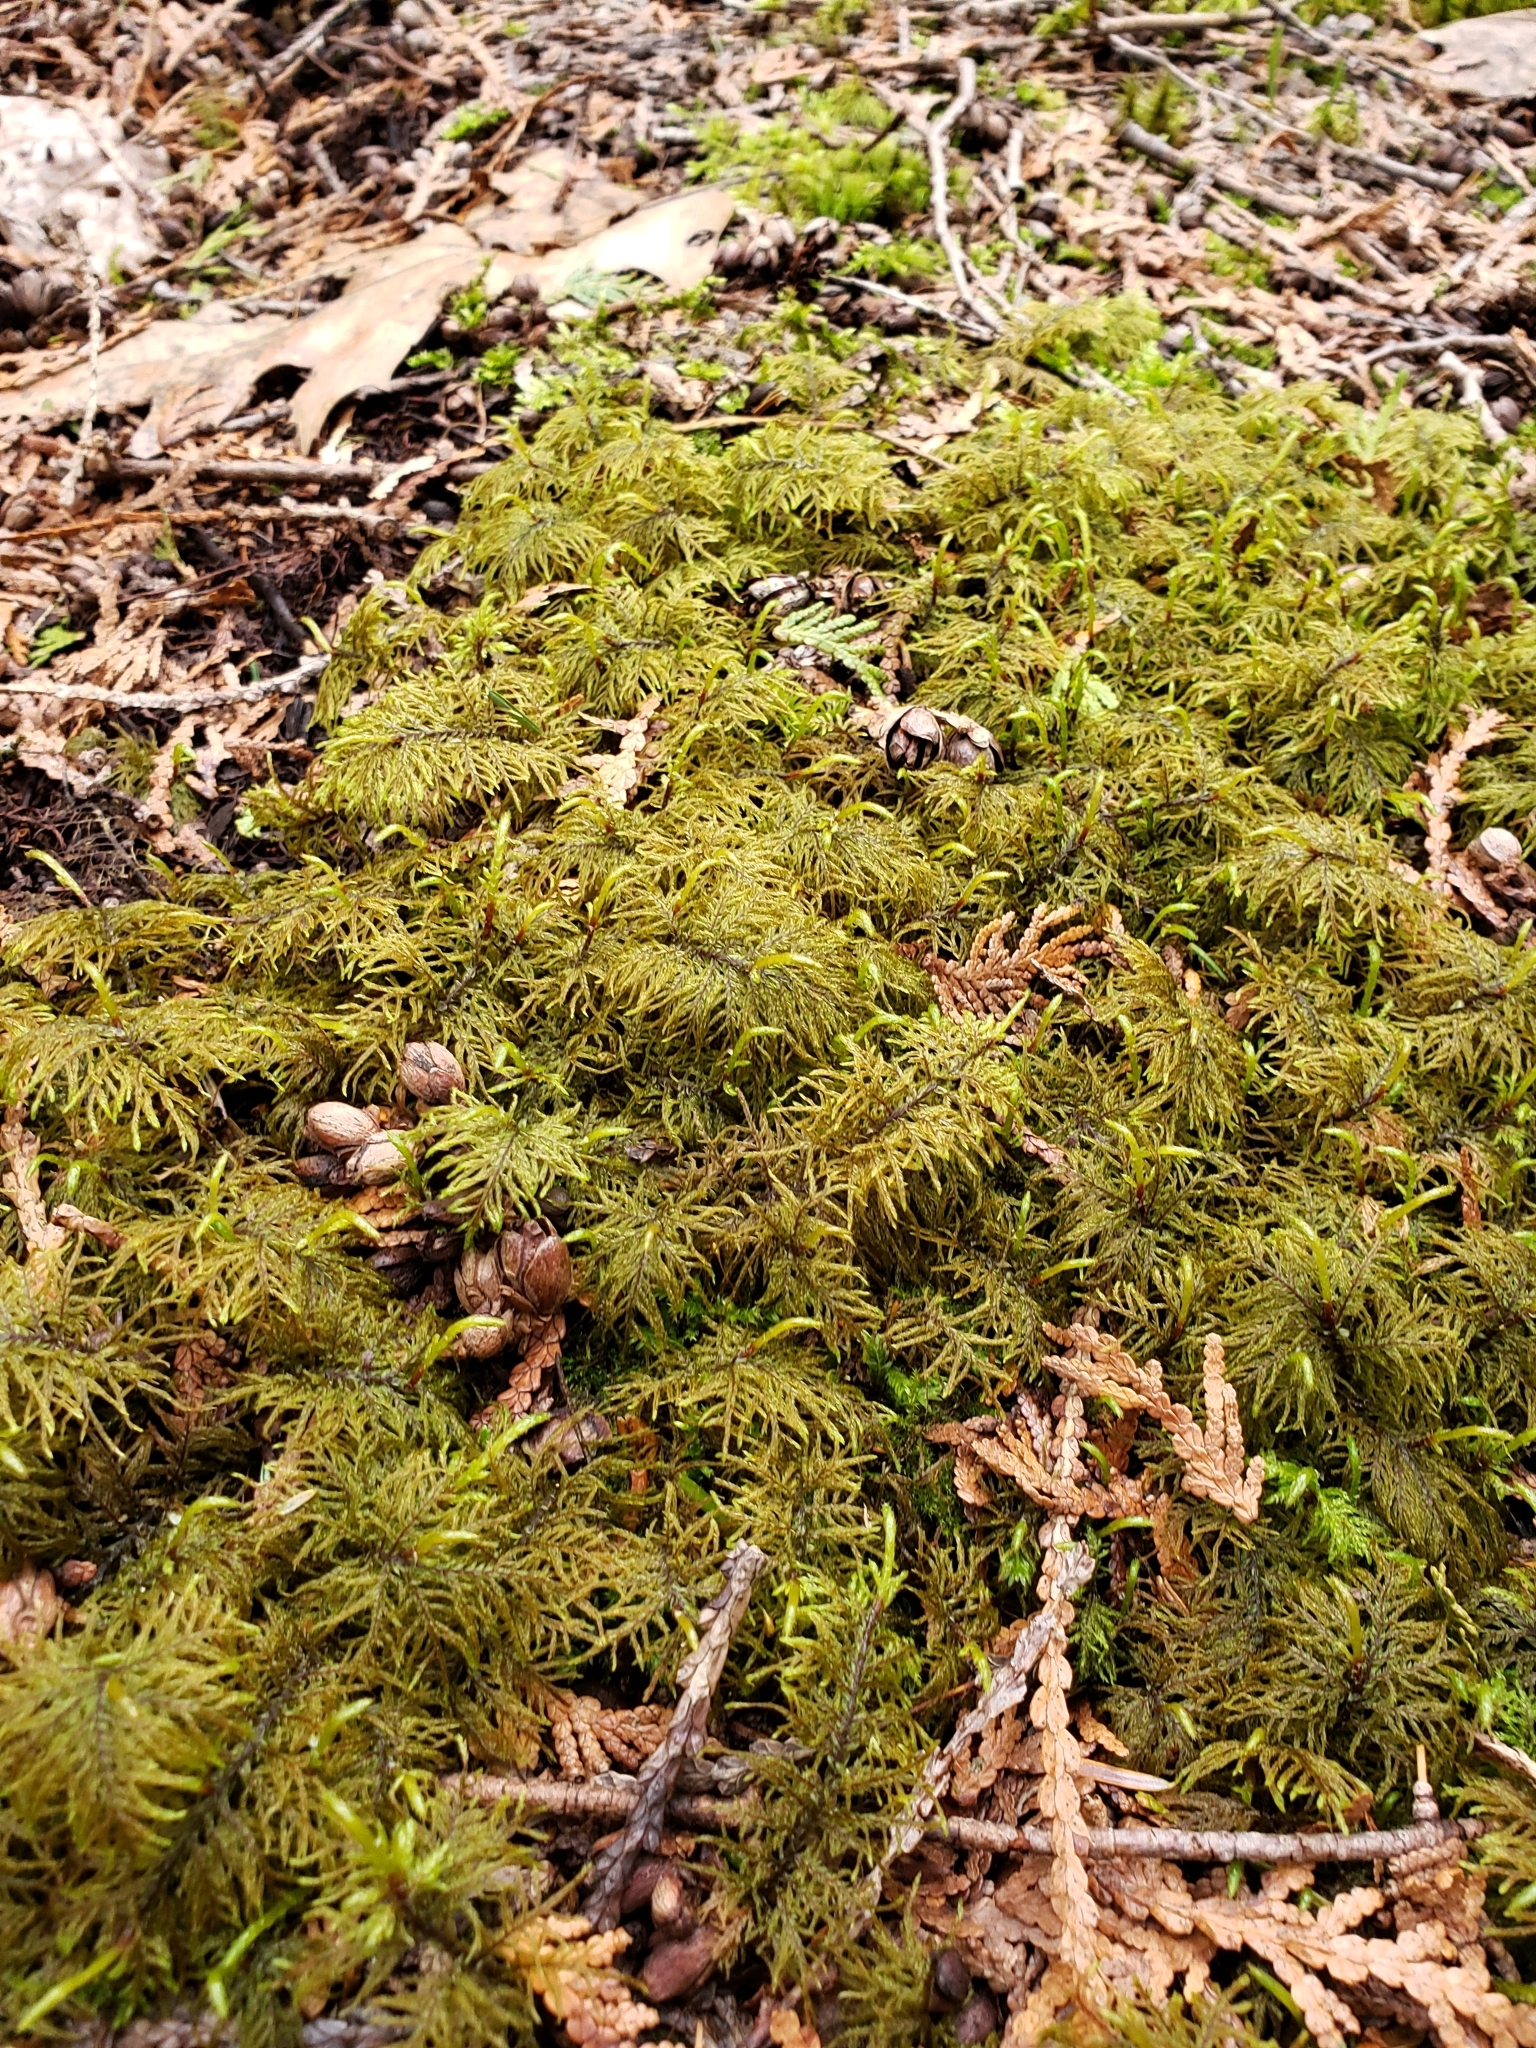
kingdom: Plantae
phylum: Bryophyta
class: Bryopsida
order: Hypnales
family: Hylocomiaceae
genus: Hylocomium
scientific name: Hylocomium splendens
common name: Stairstep moss
